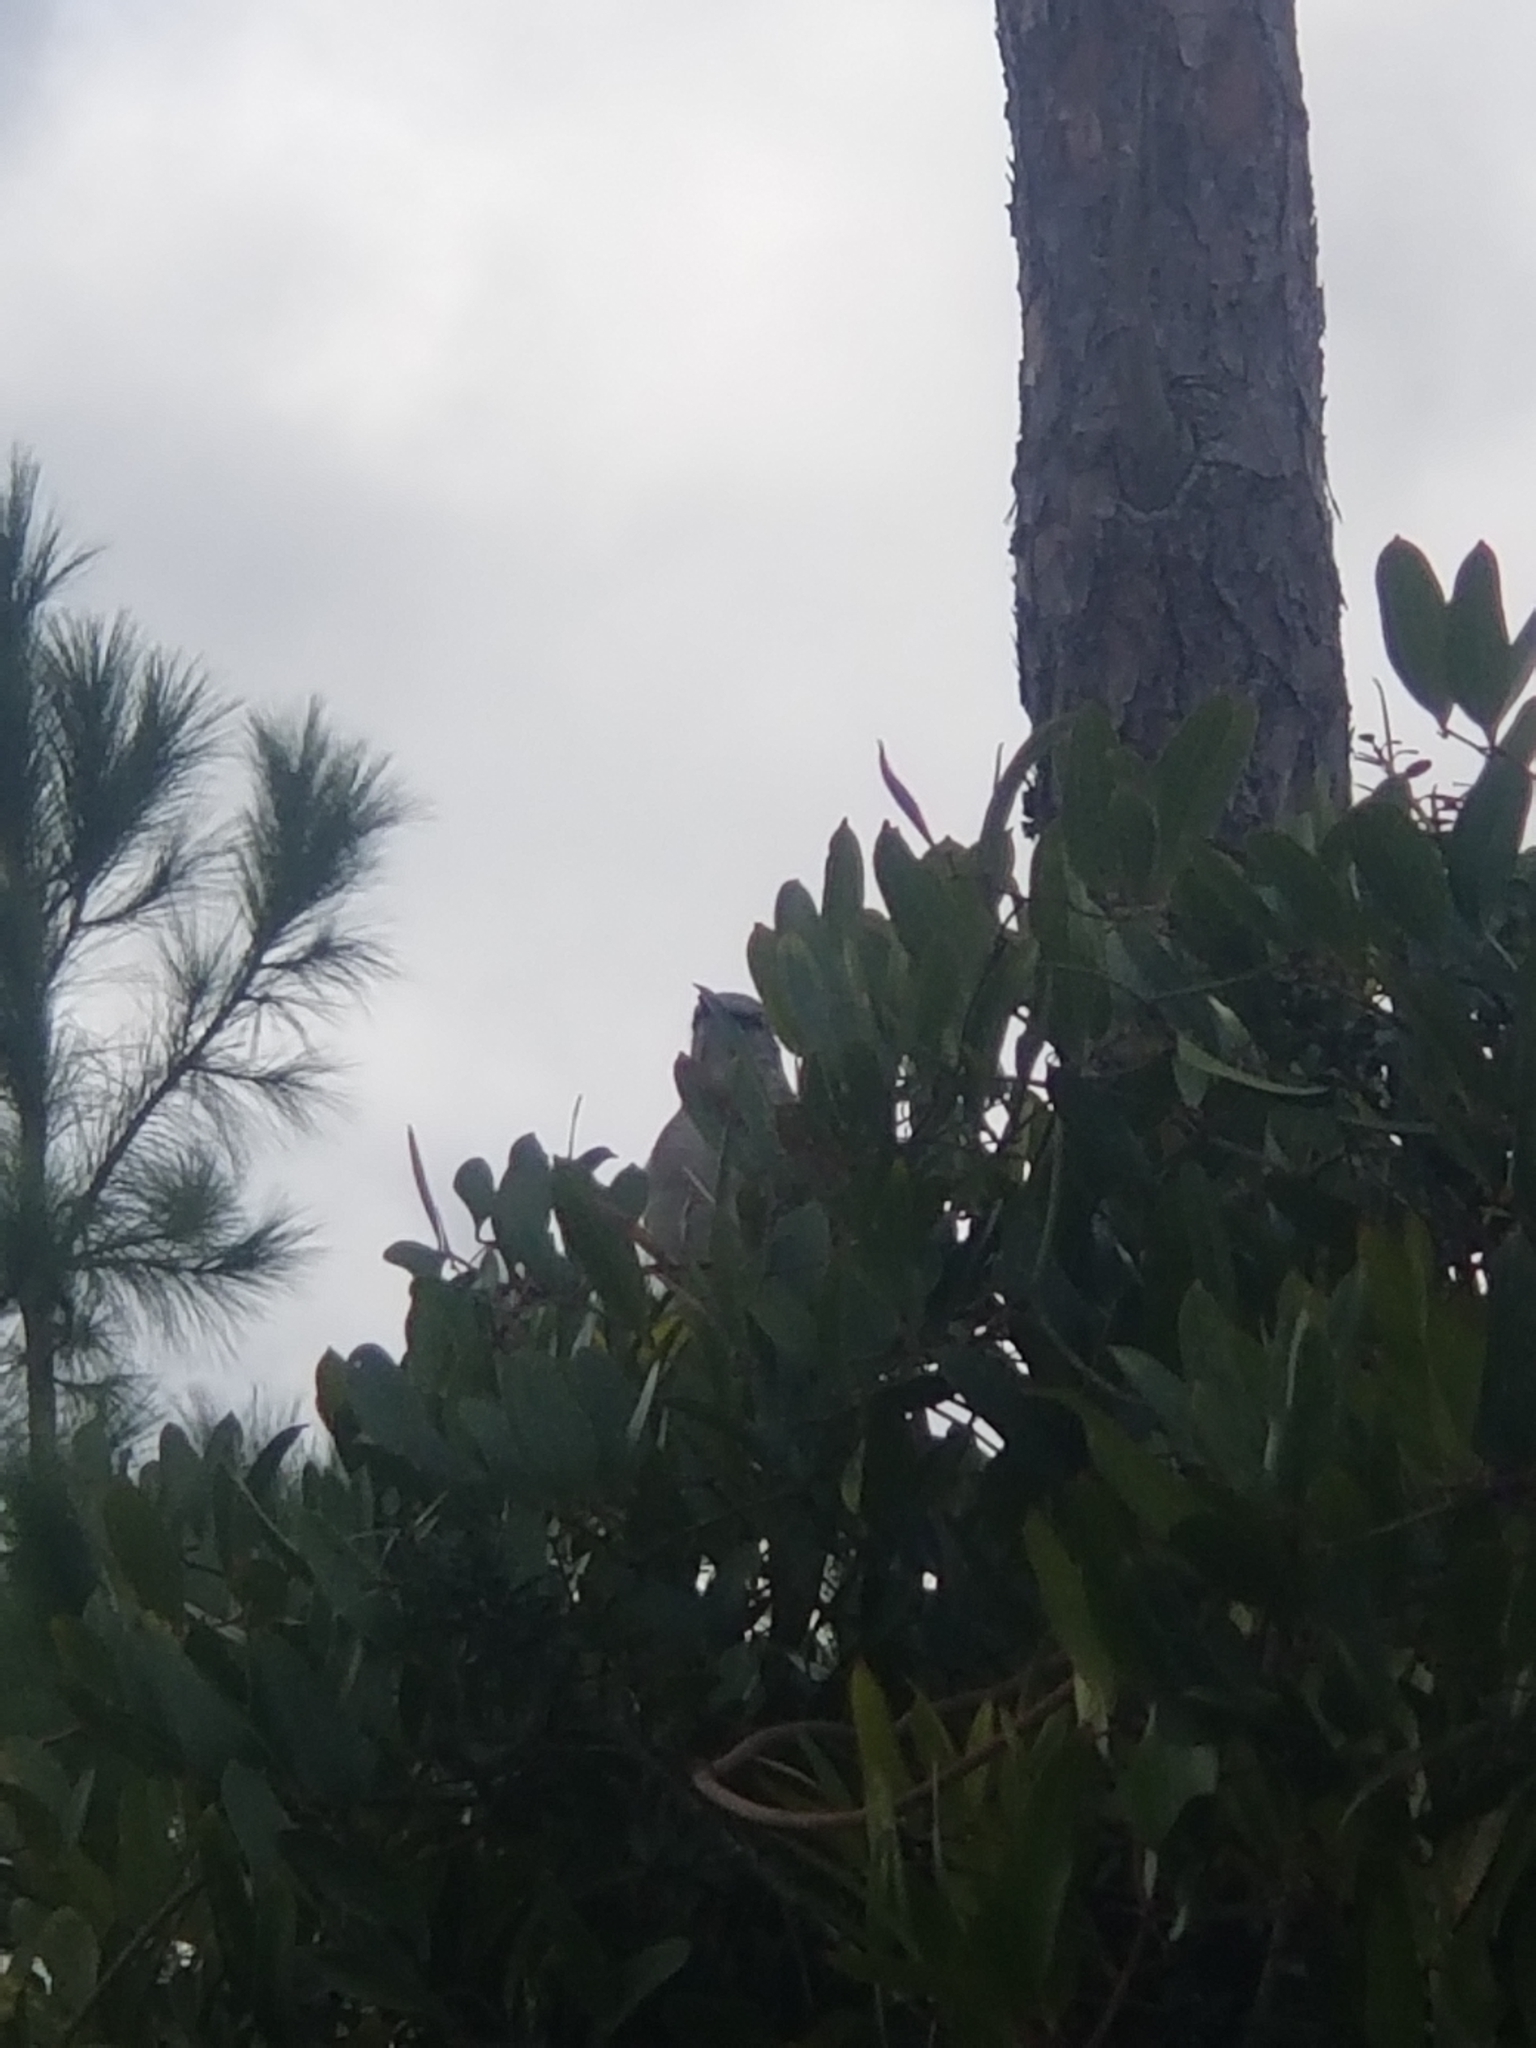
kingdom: Animalia
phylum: Chordata
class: Aves
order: Passeriformes
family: Mimidae
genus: Mimus
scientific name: Mimus polyglottos
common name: Northern mockingbird
